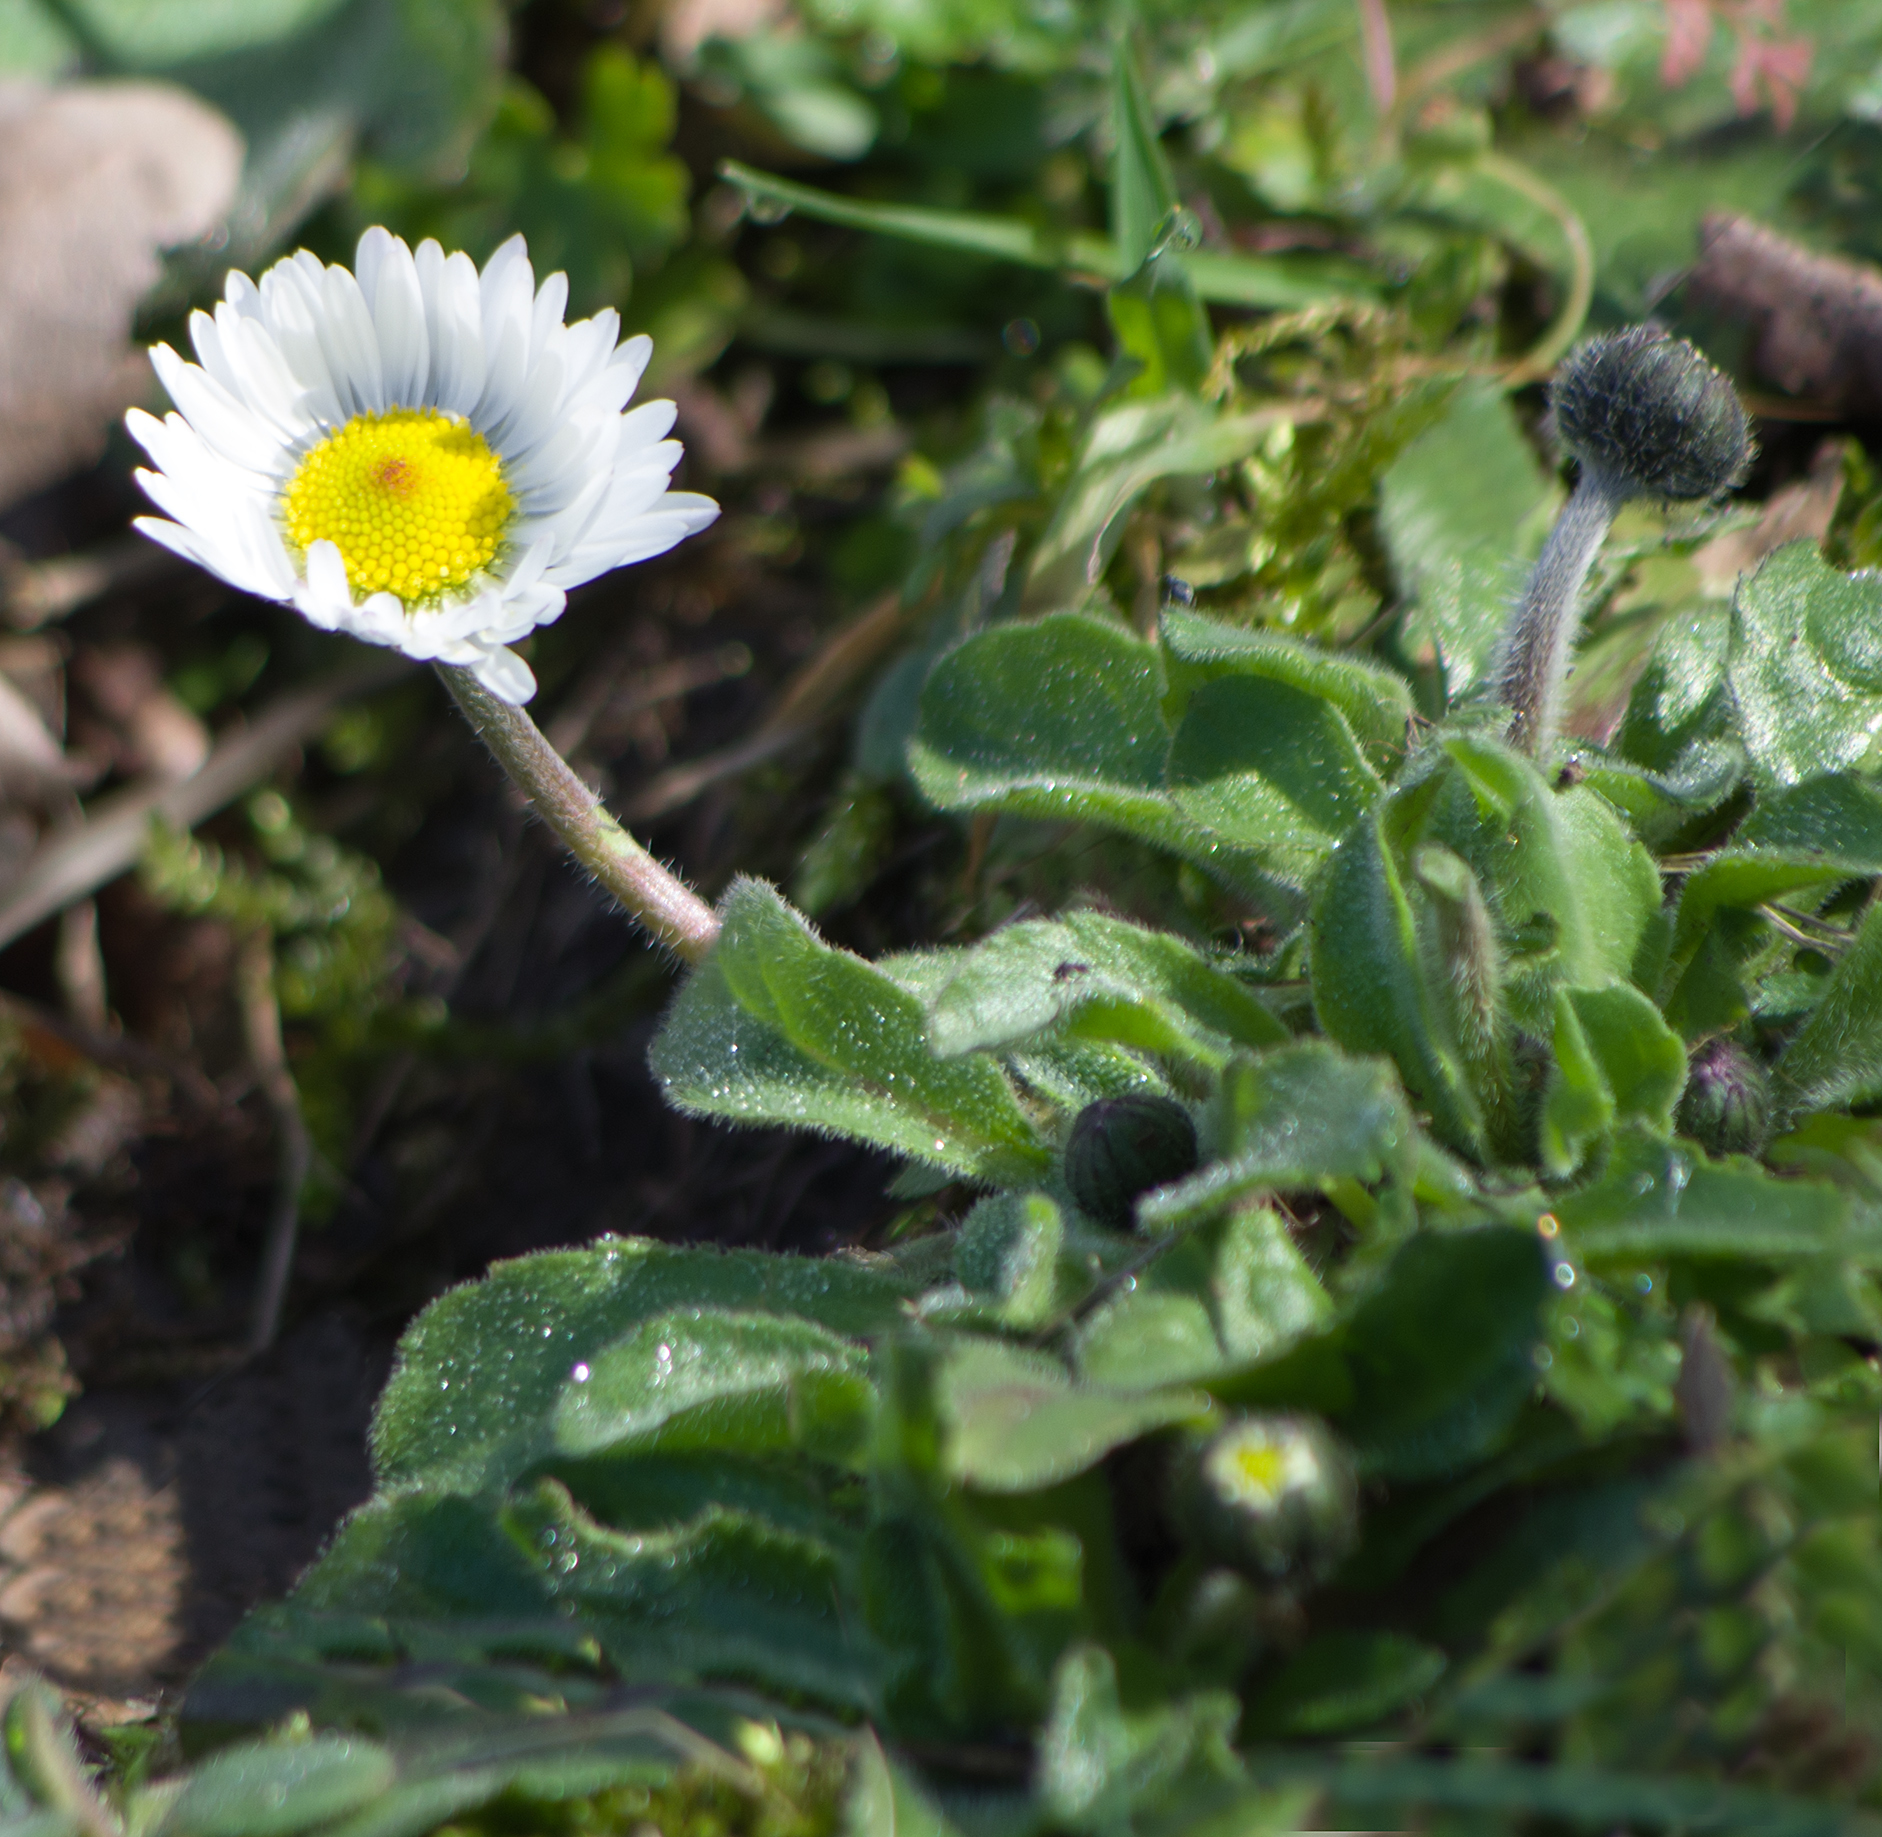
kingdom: Plantae
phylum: Tracheophyta
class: Magnoliopsida
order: Asterales
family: Asteraceae
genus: Bellis
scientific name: Bellis perennis
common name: Lawndaisy
